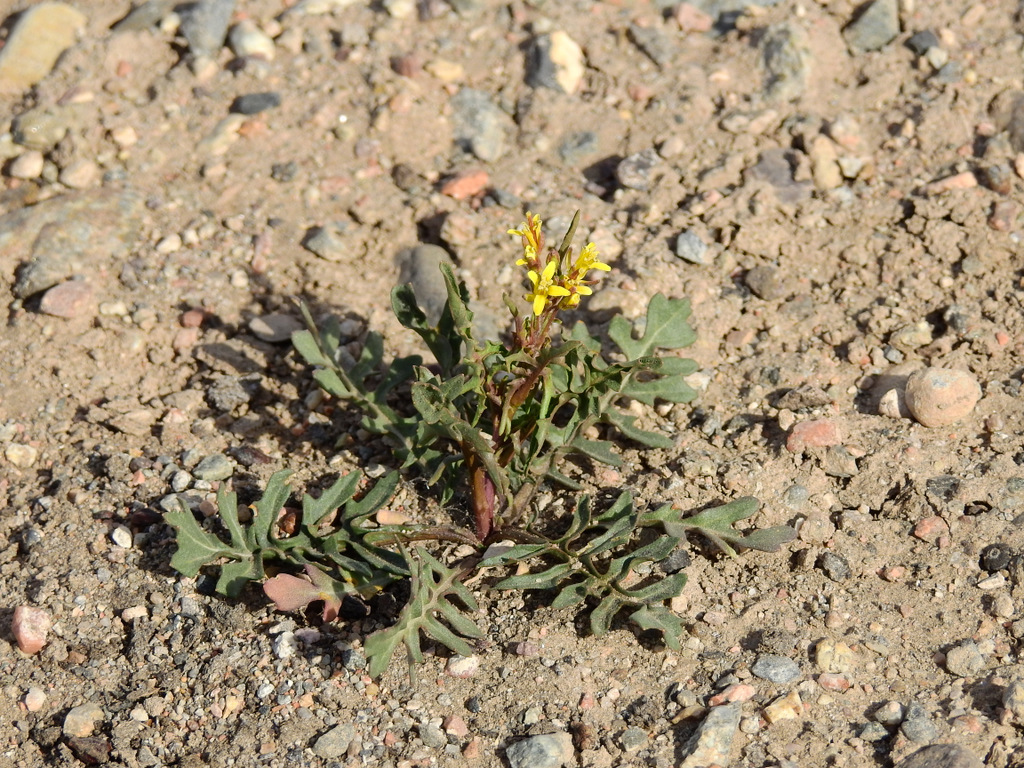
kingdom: Plantae
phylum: Tracheophyta
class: Magnoliopsida
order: Brassicales
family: Brassicaceae
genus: Sisymbrium
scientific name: Sisymbrium irio
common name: London rocket
